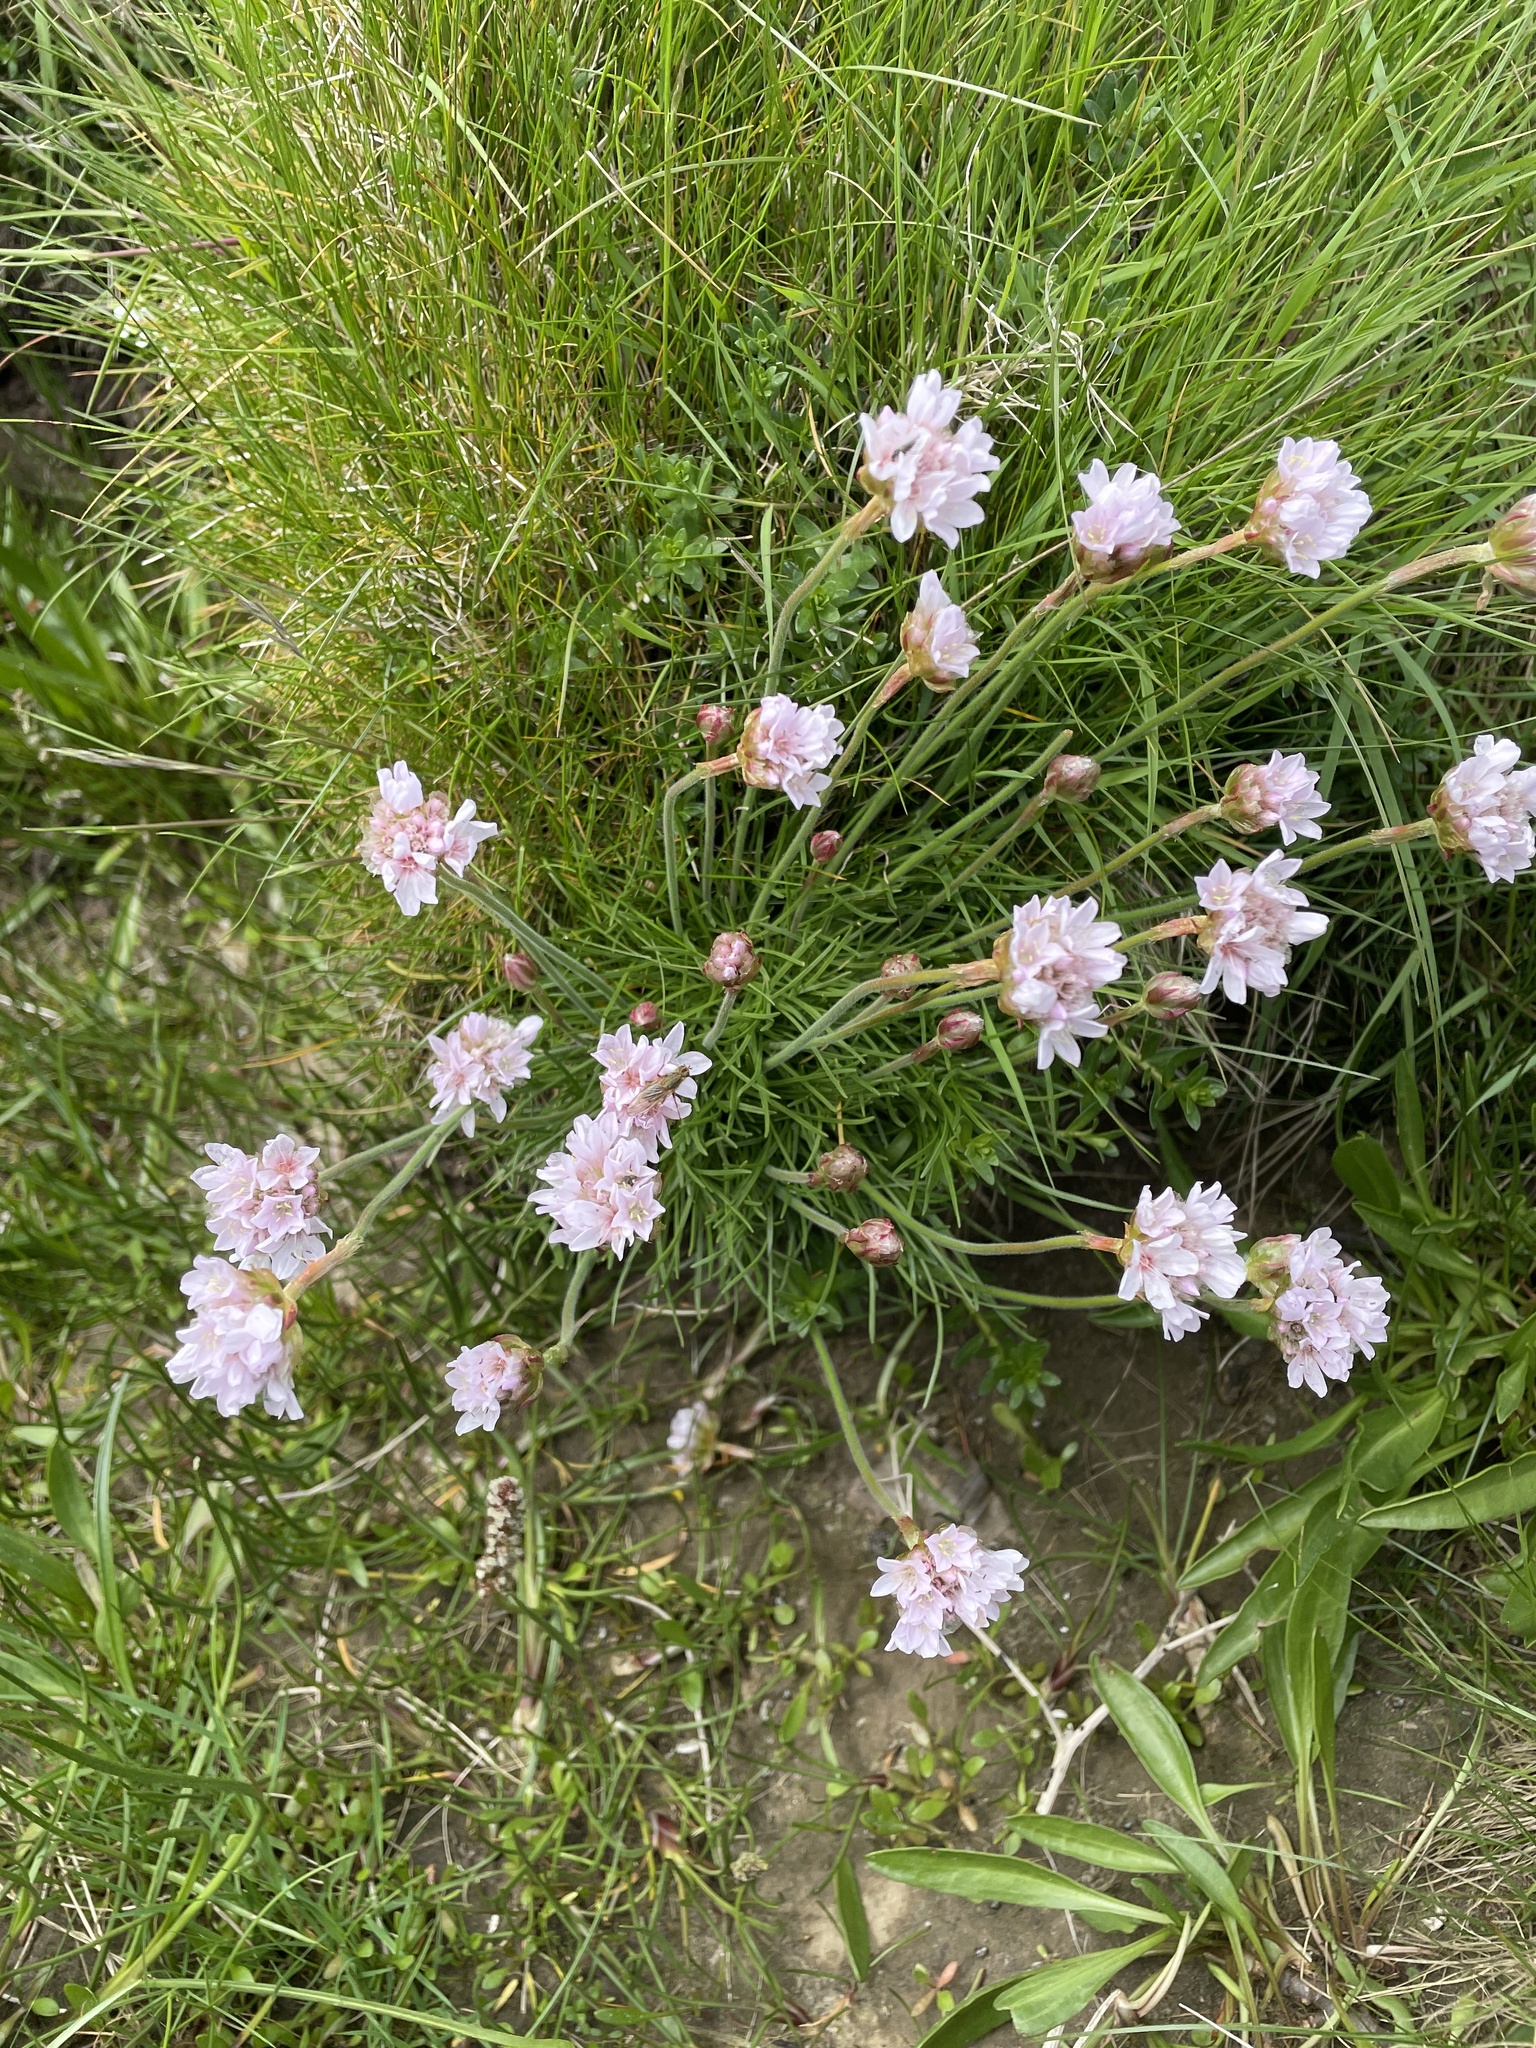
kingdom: Plantae
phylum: Tracheophyta
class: Magnoliopsida
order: Caryophyllales
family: Plumbaginaceae
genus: Armeria
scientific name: Armeria maritima
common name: Thrift
